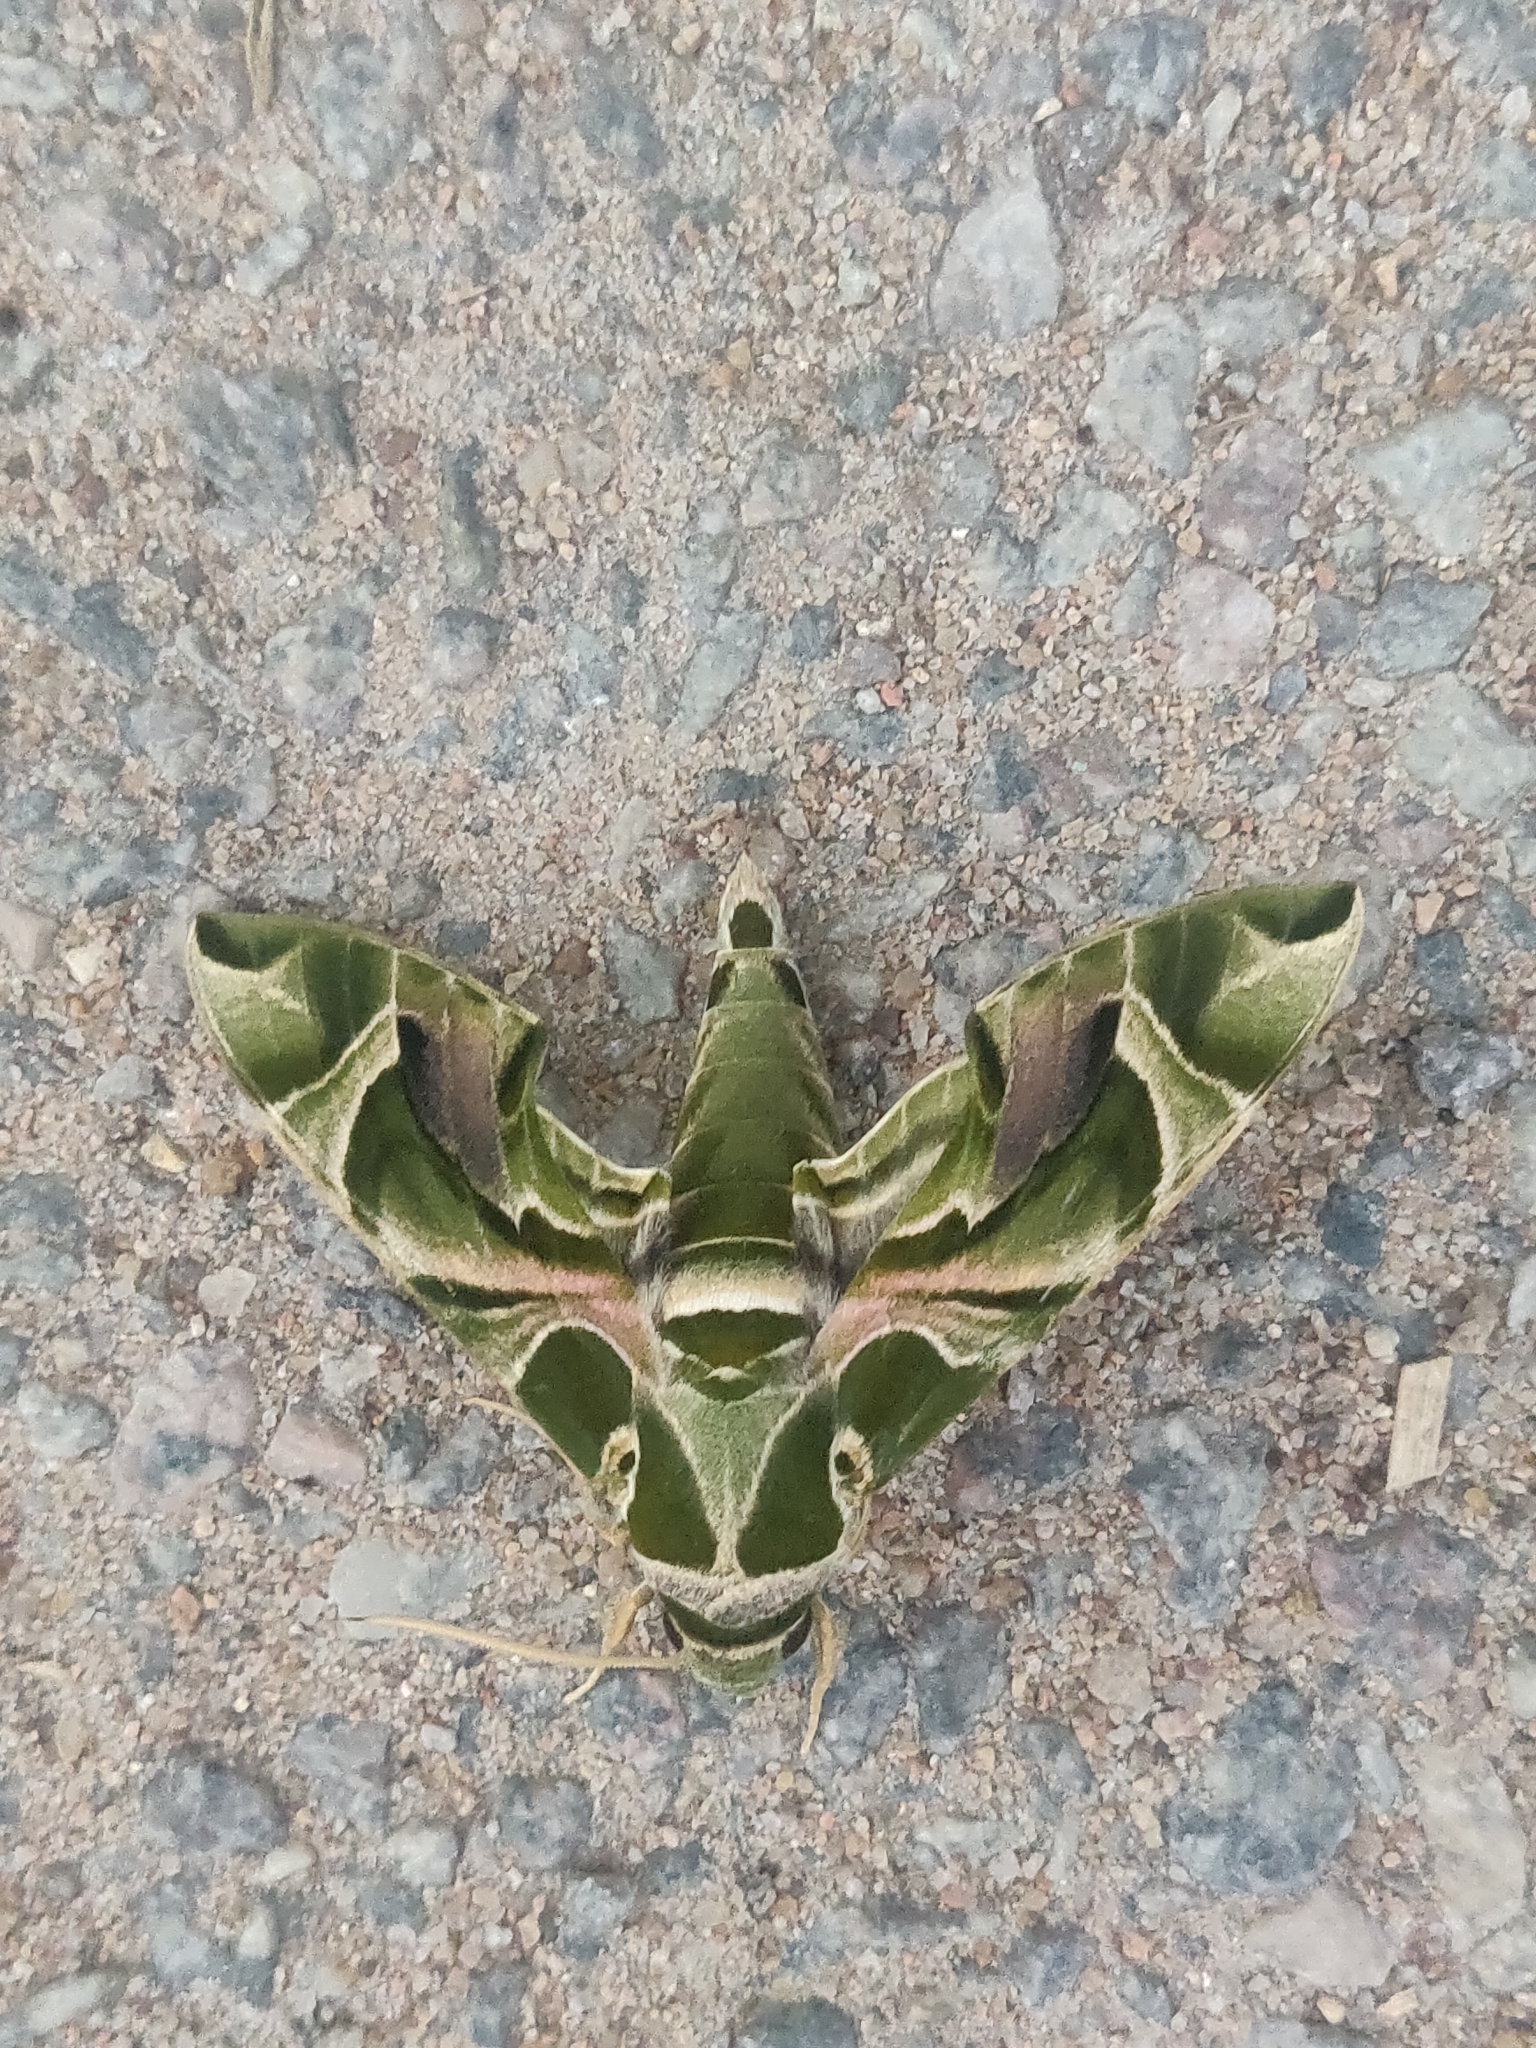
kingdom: Animalia
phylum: Arthropoda
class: Insecta
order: Lepidoptera
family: Sphingidae
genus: Daphnis
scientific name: Daphnis nerii
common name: Oleander hawk-moth
